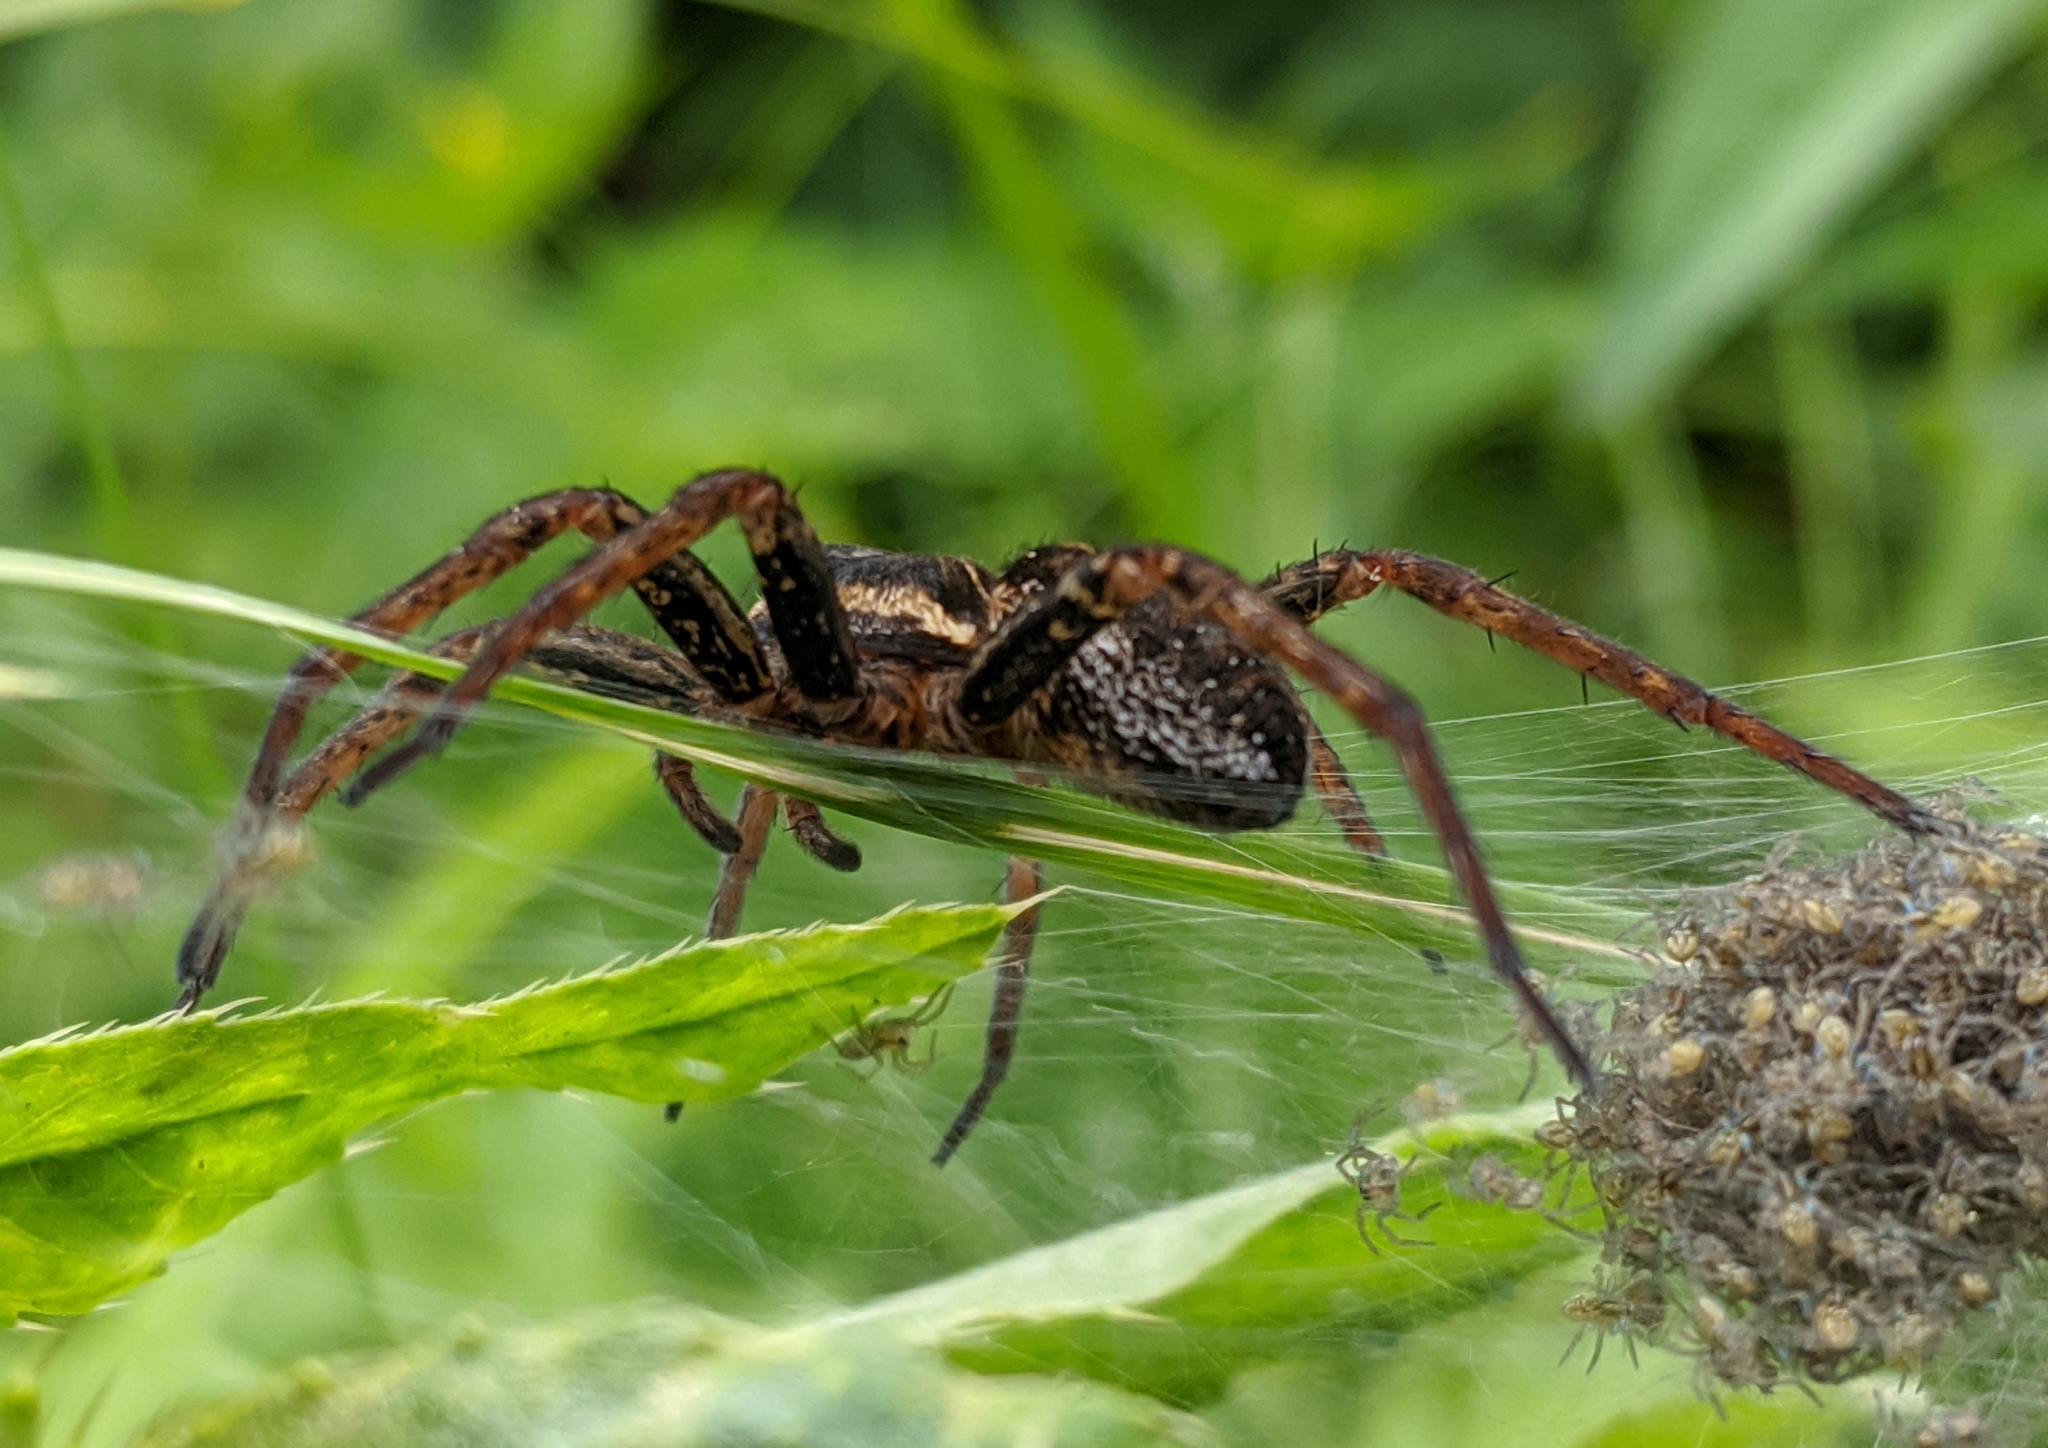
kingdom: Animalia
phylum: Arthropoda
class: Arachnida
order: Araneae
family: Pisauridae
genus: Dolomedes
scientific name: Dolomedes fimbriatus
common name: Raft spider
